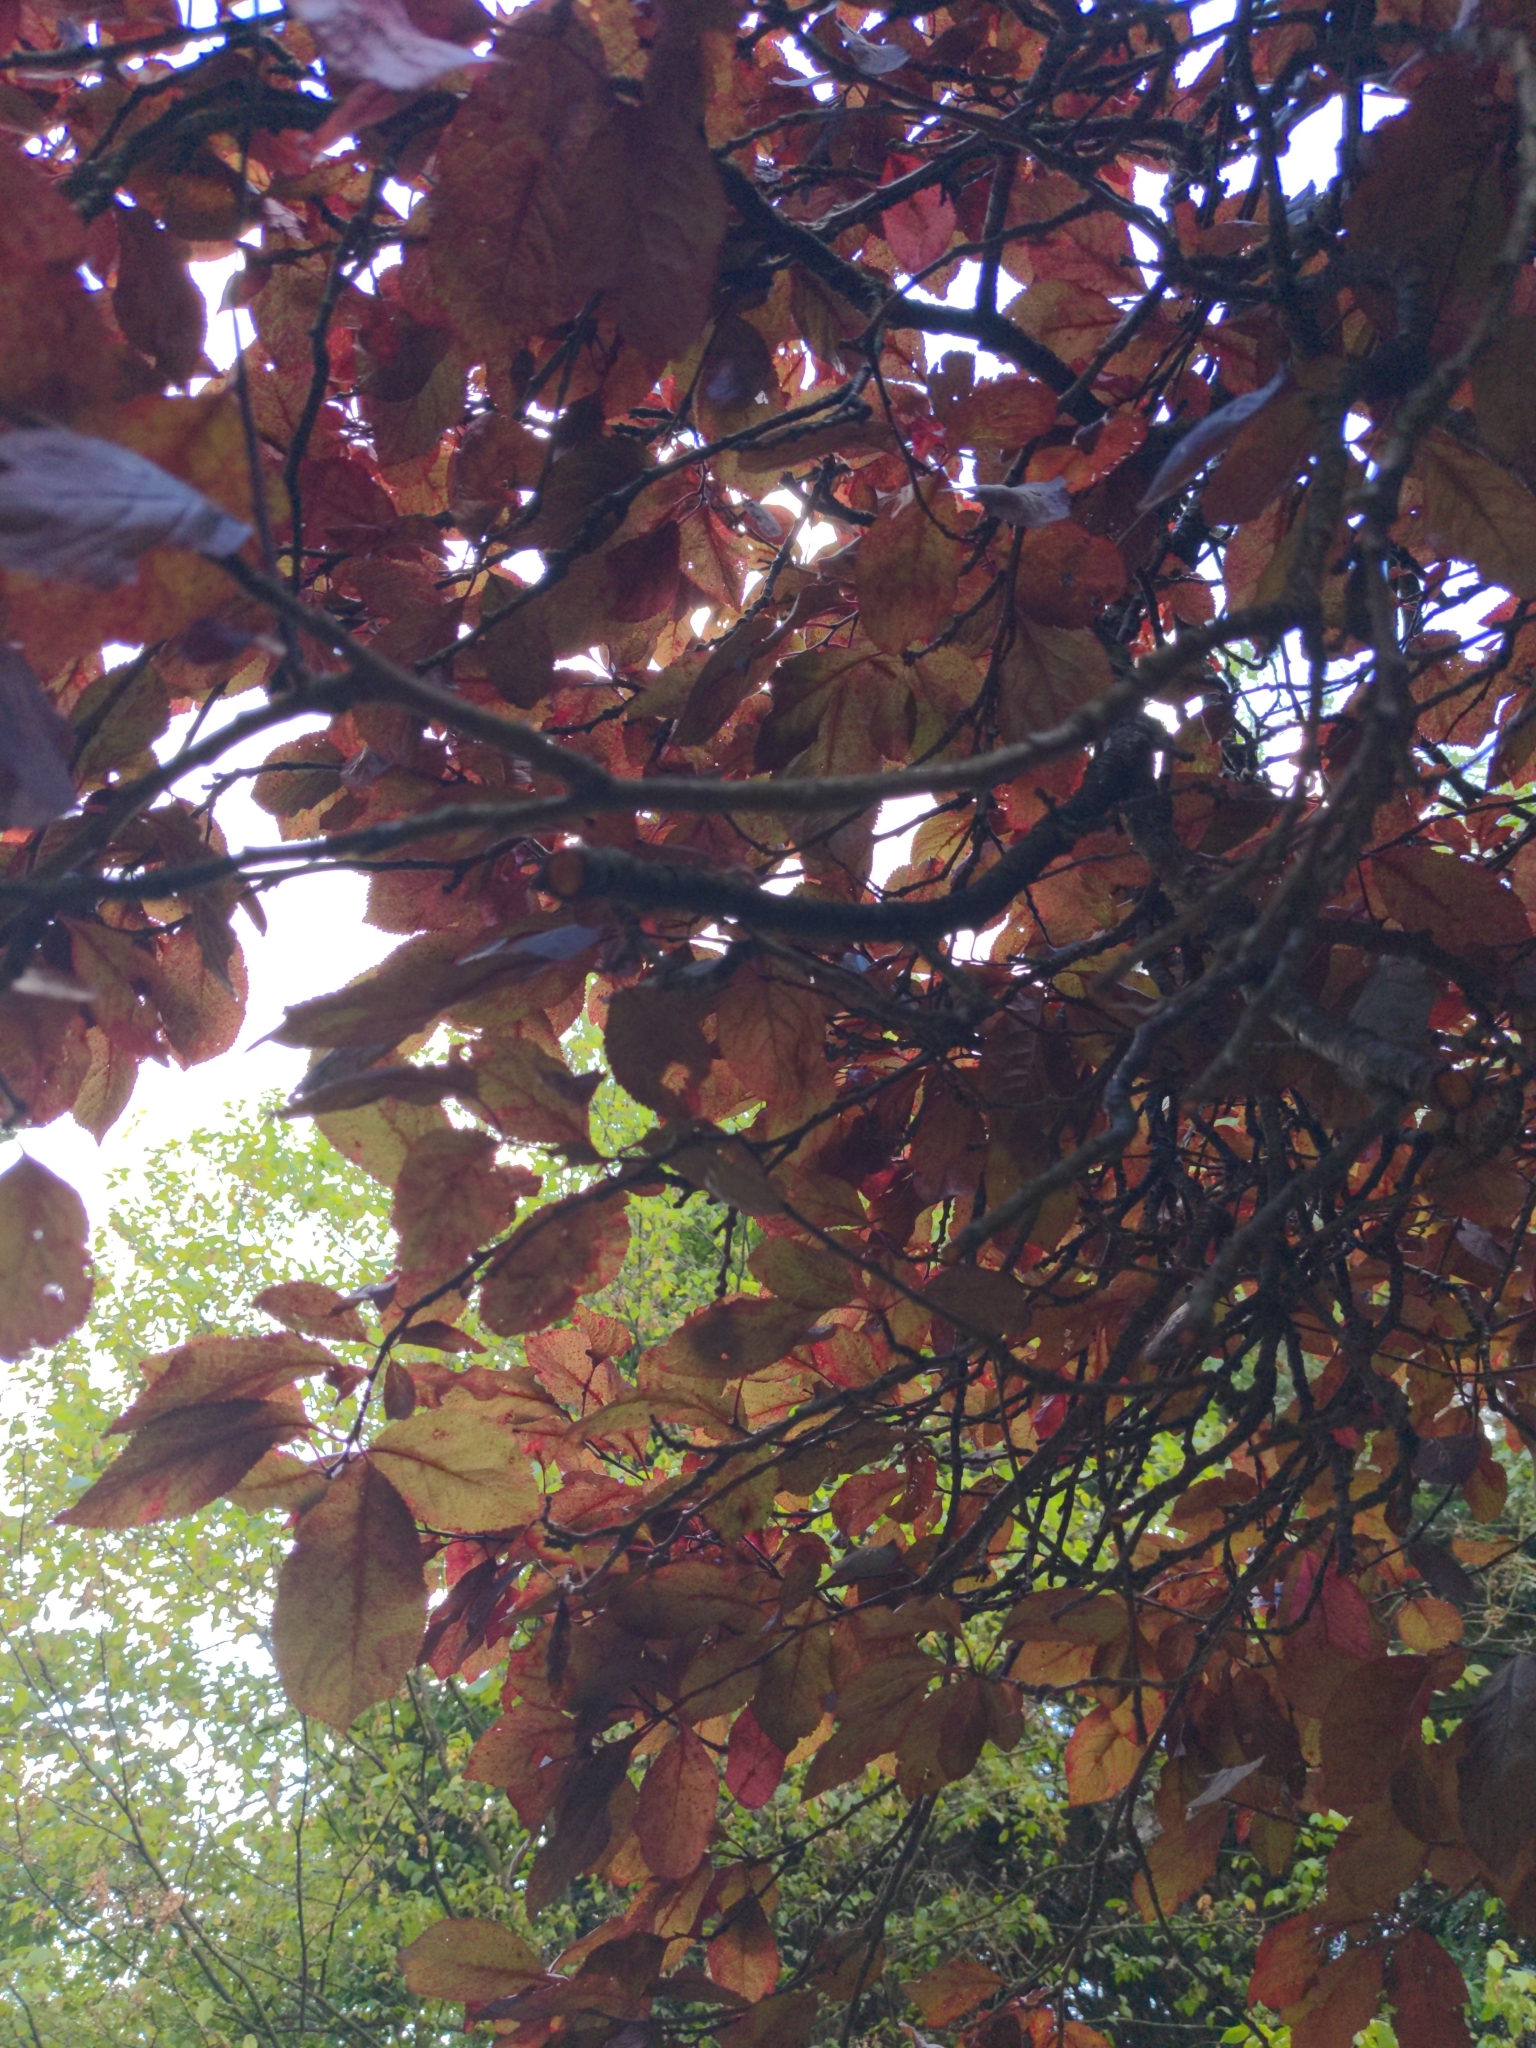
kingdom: Plantae
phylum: Tracheophyta
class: Magnoliopsida
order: Fagales
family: Fagaceae
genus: Fagus
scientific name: Fagus sylvatica
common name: Beech
